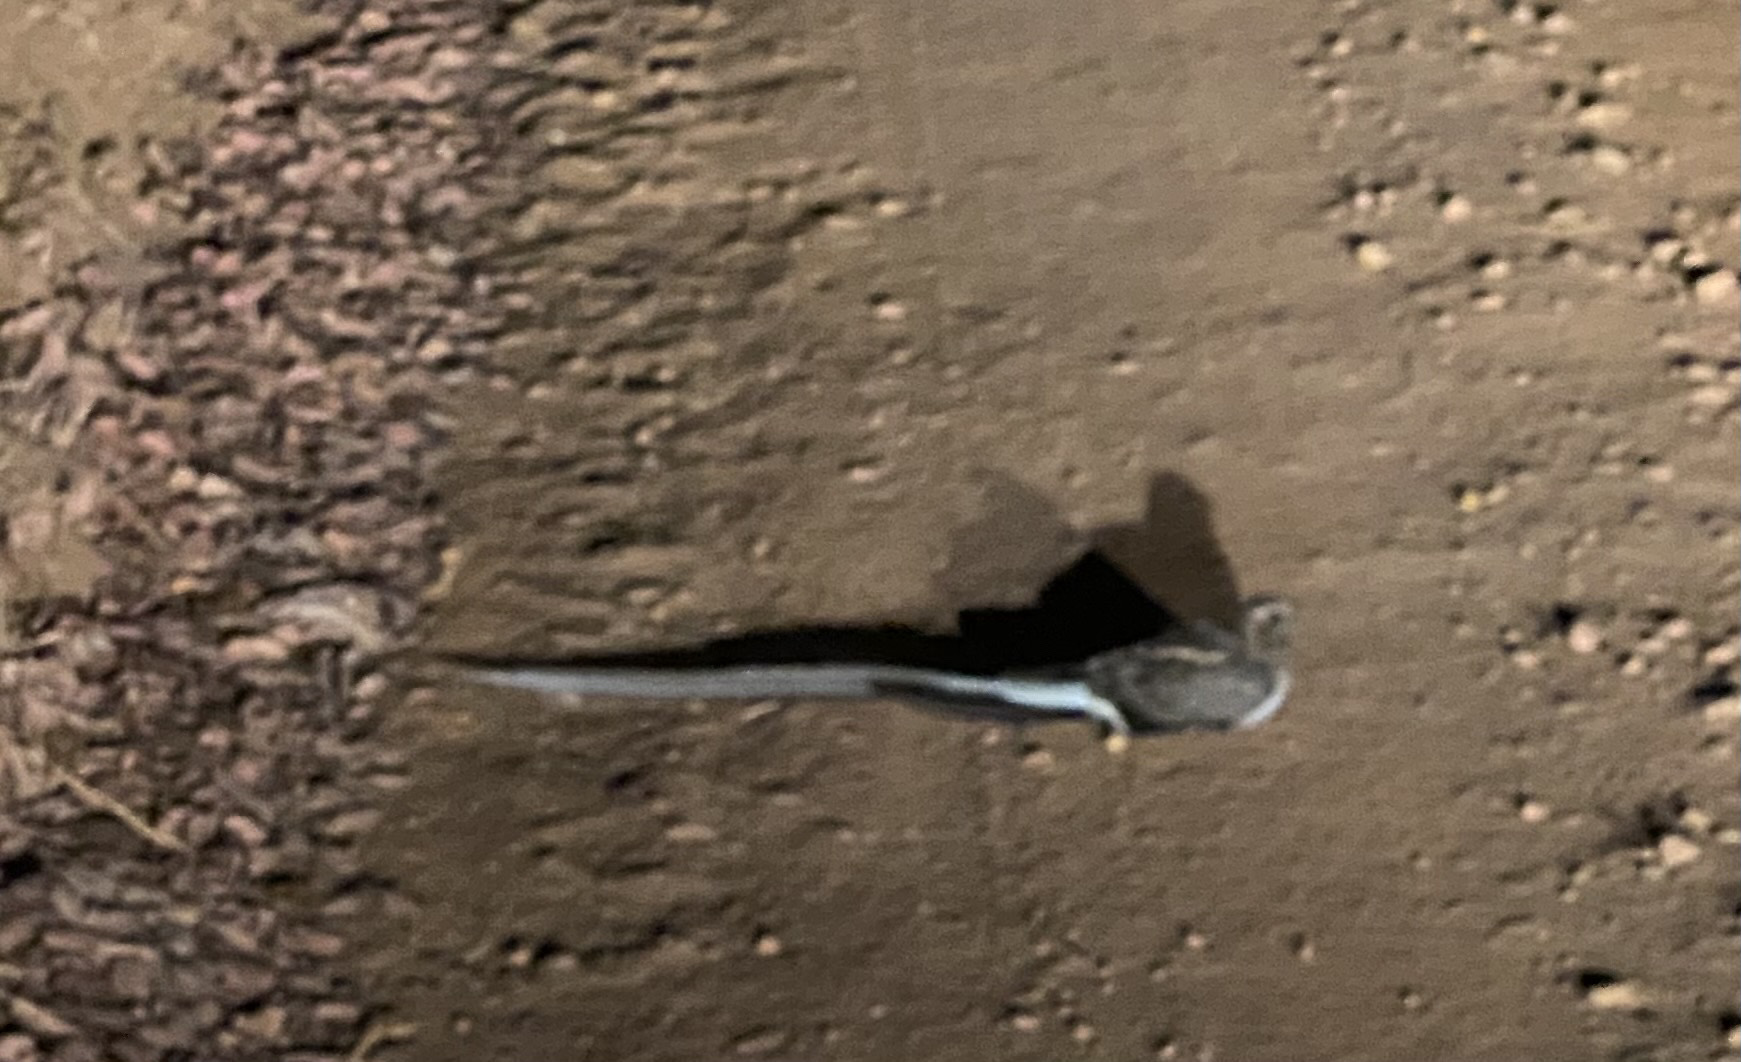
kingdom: Animalia
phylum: Chordata
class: Aves
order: Caprimulgiformes
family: Caprimulgidae
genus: Caprimulgus
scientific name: Caprimulgus vexillarius
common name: Pennant-winged nightjar
